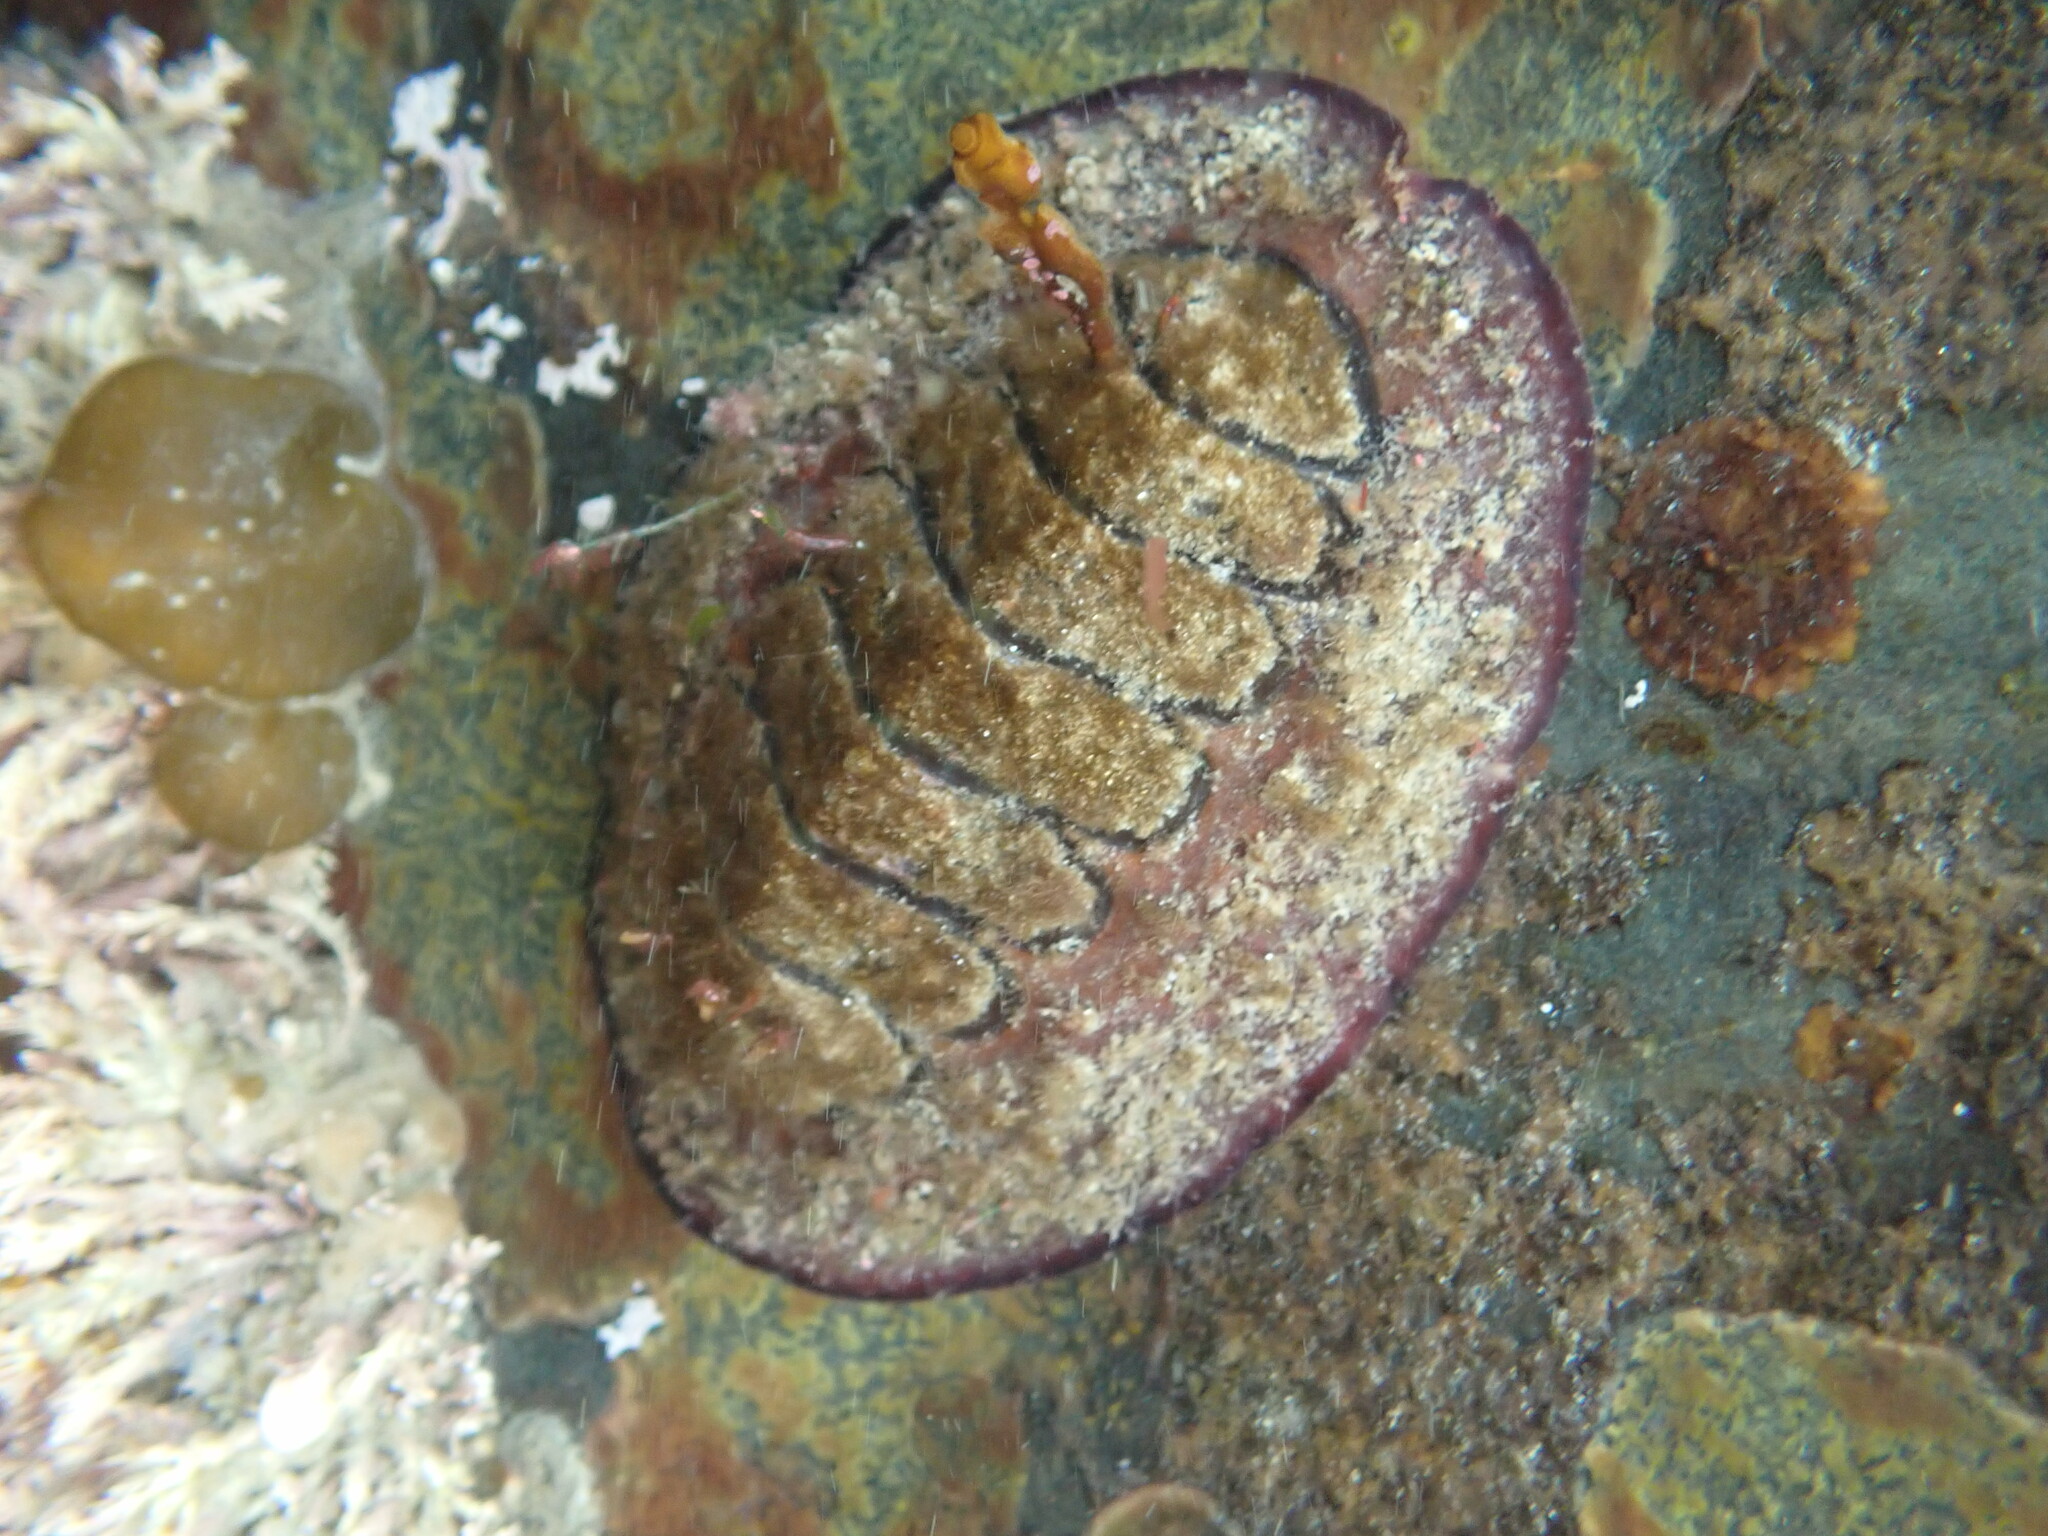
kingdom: Animalia
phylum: Mollusca
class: Polyplacophora
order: Callochitonida
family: Callochitonidae
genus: Eudoxochiton
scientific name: Eudoxochiton nobilis
